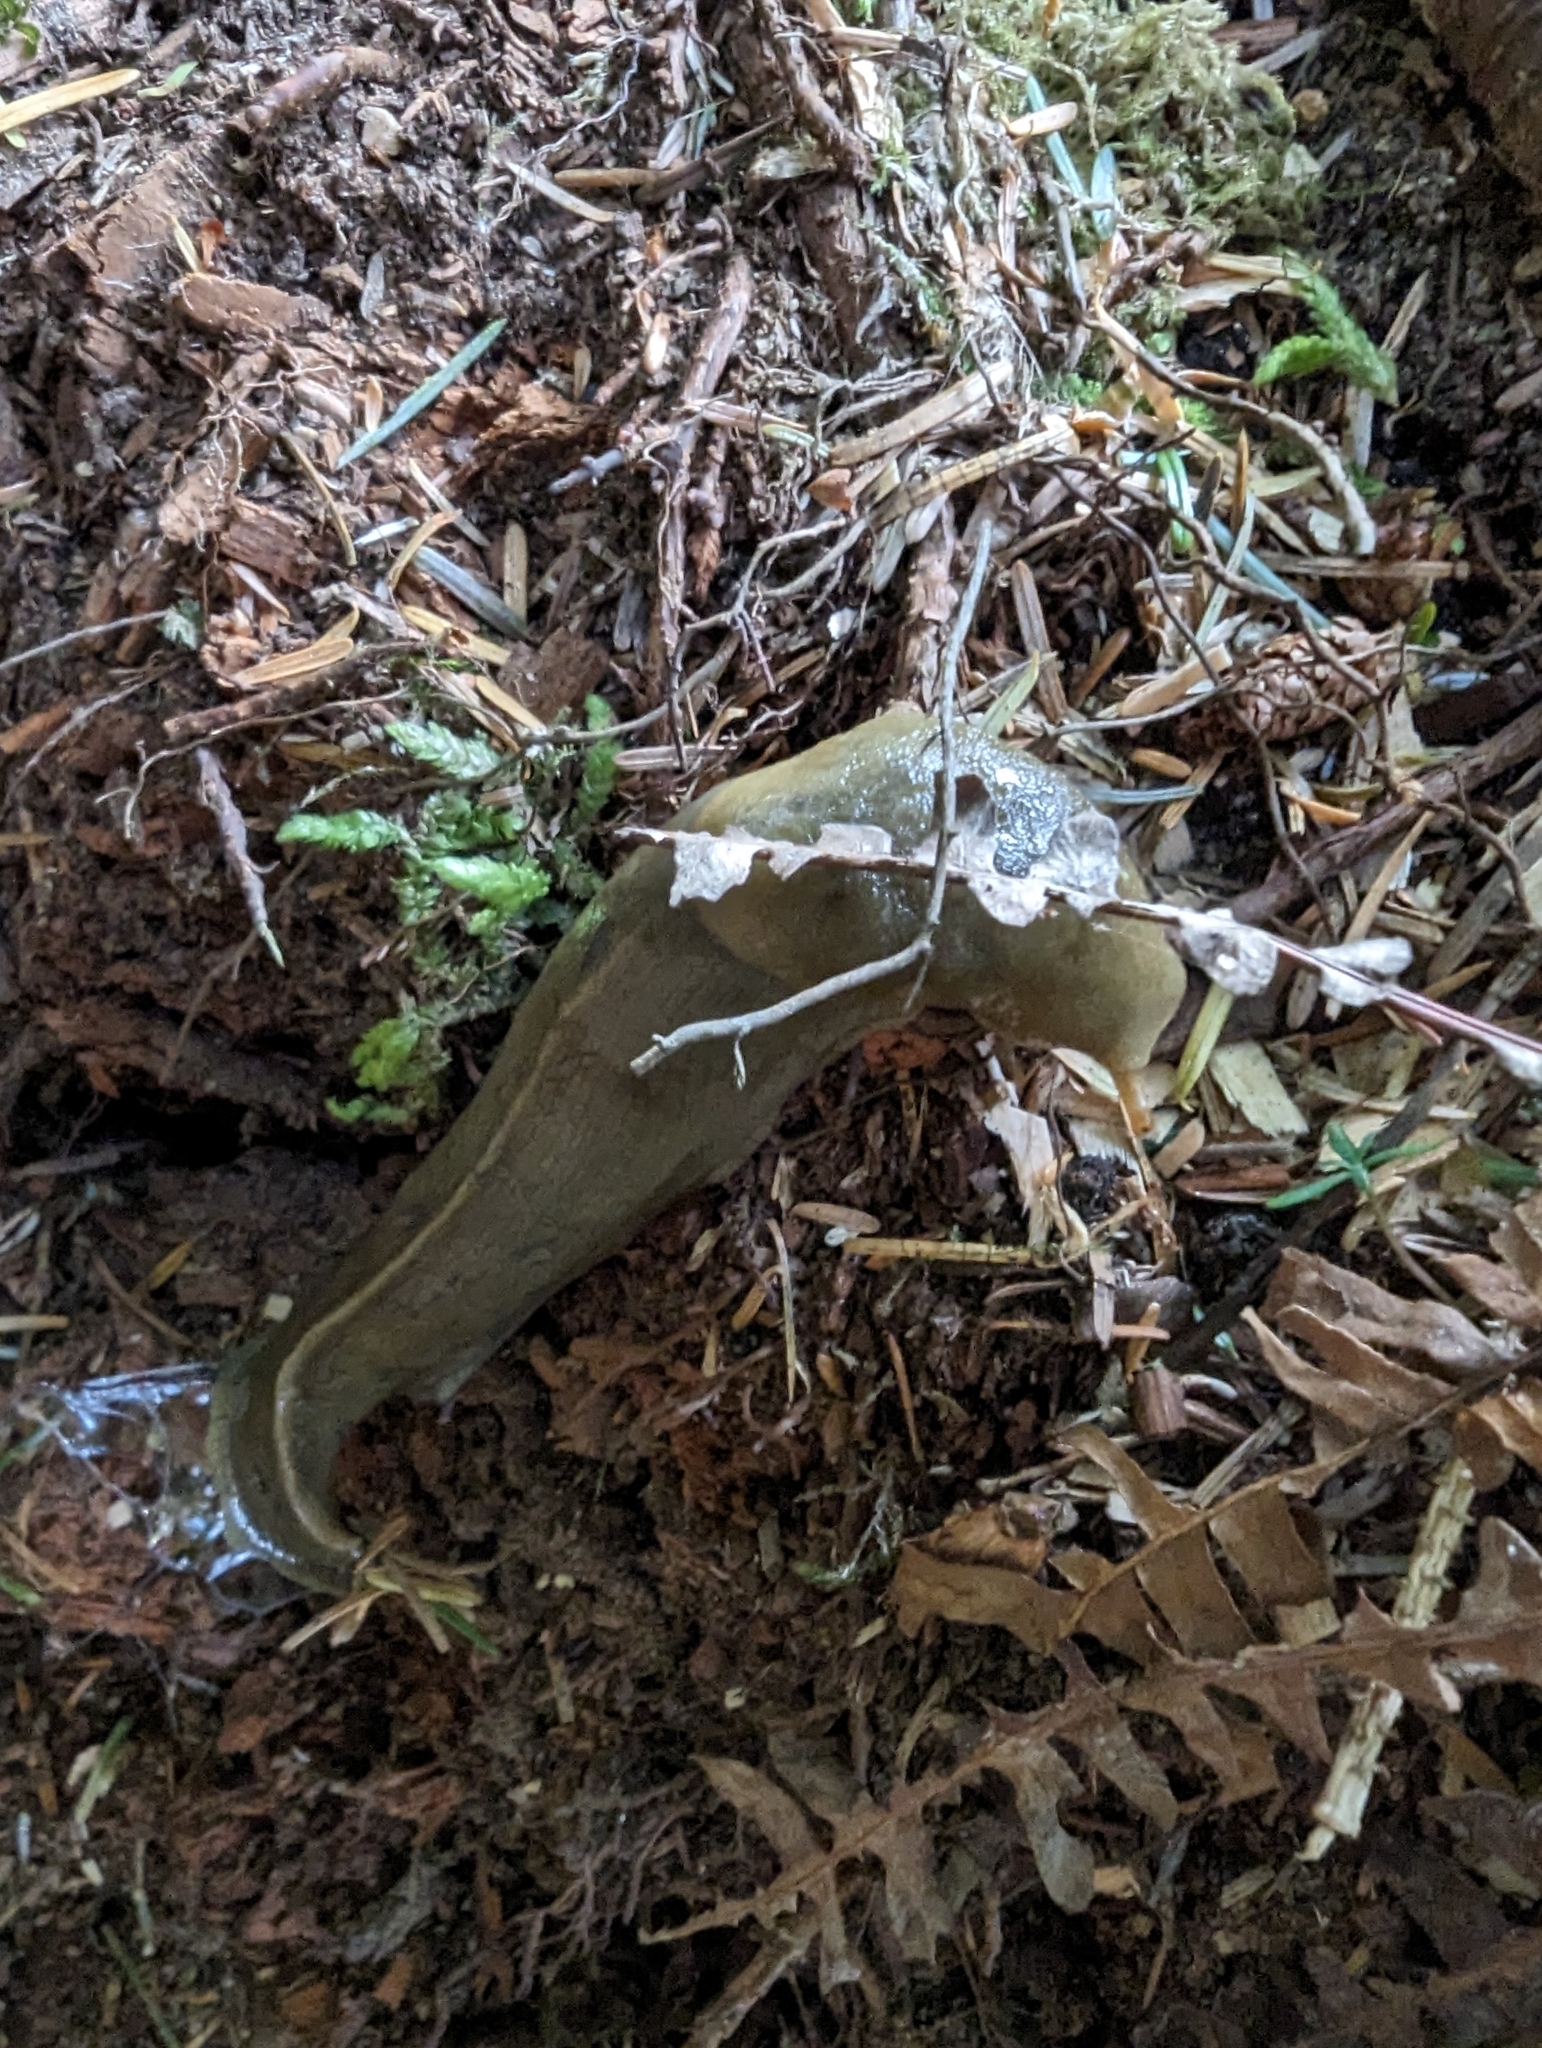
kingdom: Animalia
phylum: Mollusca
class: Gastropoda
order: Stylommatophora
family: Ariolimacidae
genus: Ariolimax
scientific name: Ariolimax columbianus
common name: Pacific banana slug
